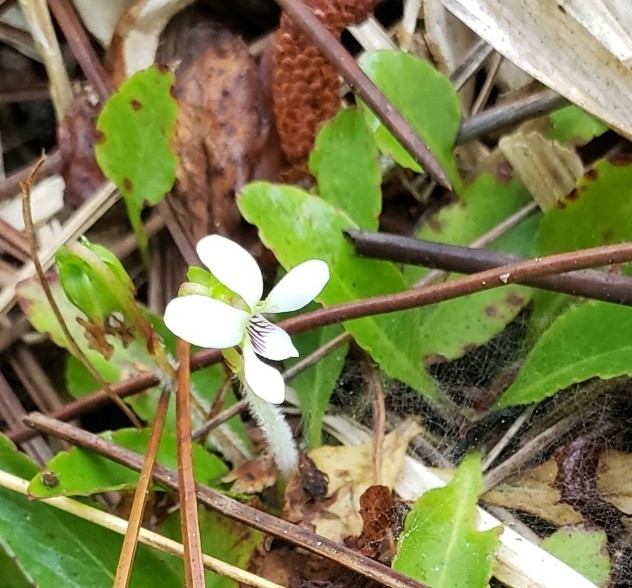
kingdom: Plantae
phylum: Tracheophyta
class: Magnoliopsida
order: Malpighiales
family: Violaceae
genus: Viola
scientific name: Viola lanceolata
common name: Bog white violet
